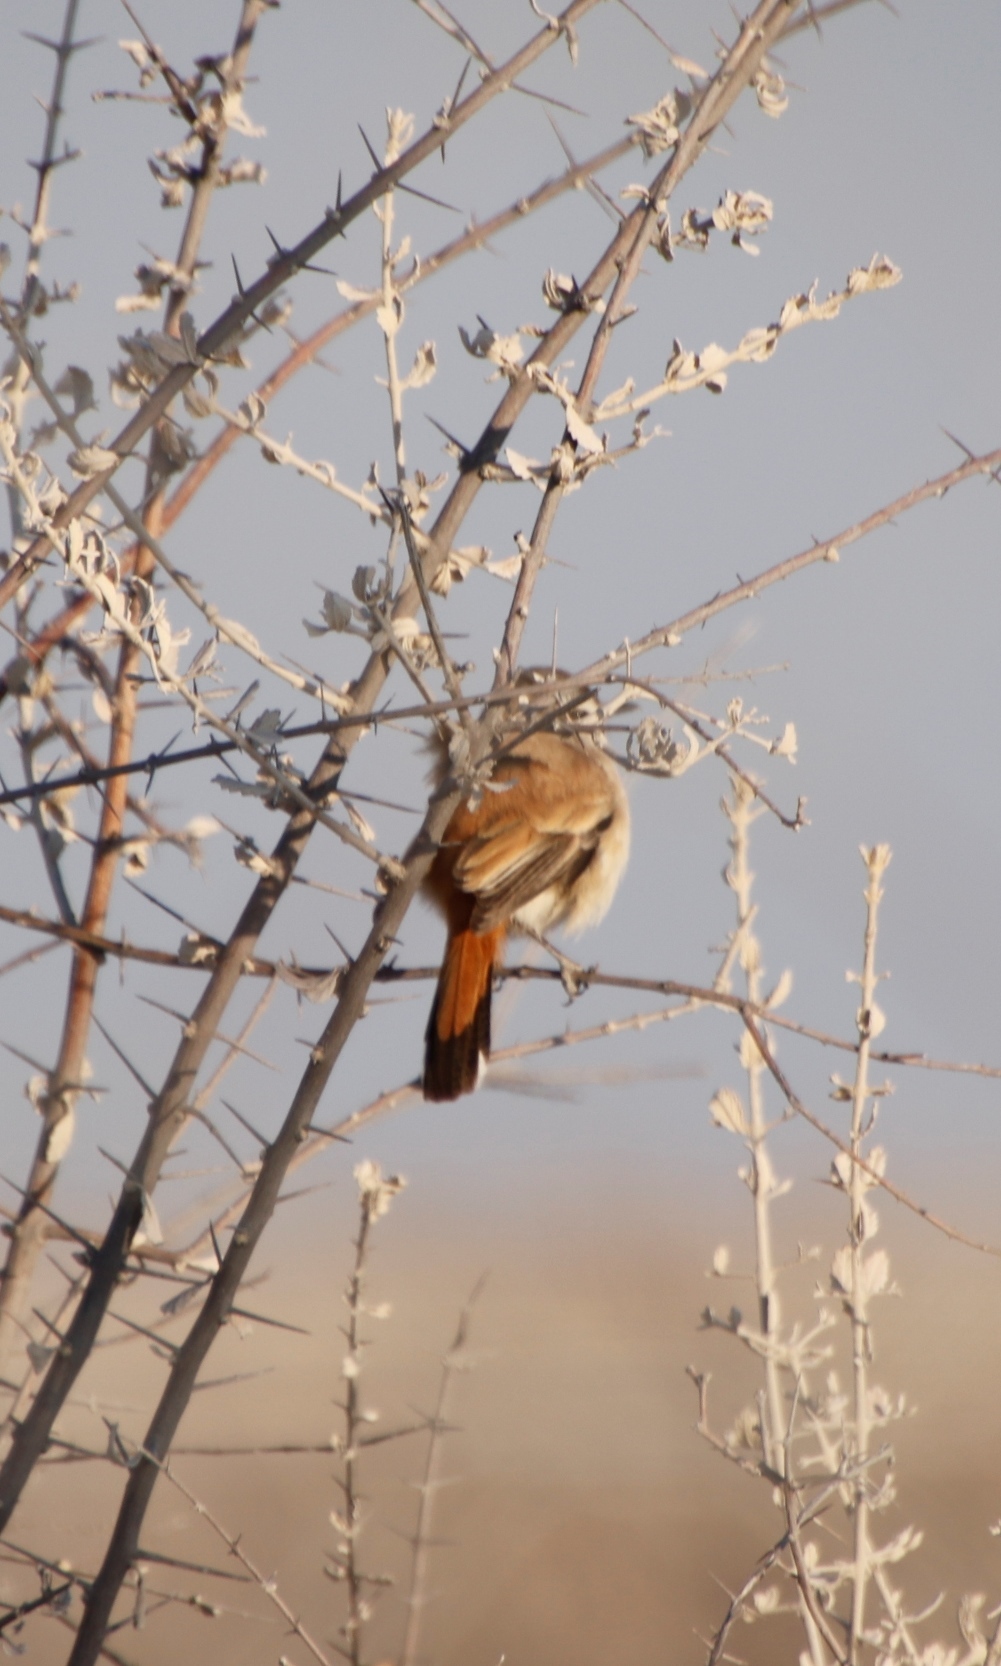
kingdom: Animalia
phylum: Chordata
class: Aves
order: Passeriformes
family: Muscicapidae
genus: Erythropygia
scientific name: Erythropygia paena
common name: Kalahari scrub robin
